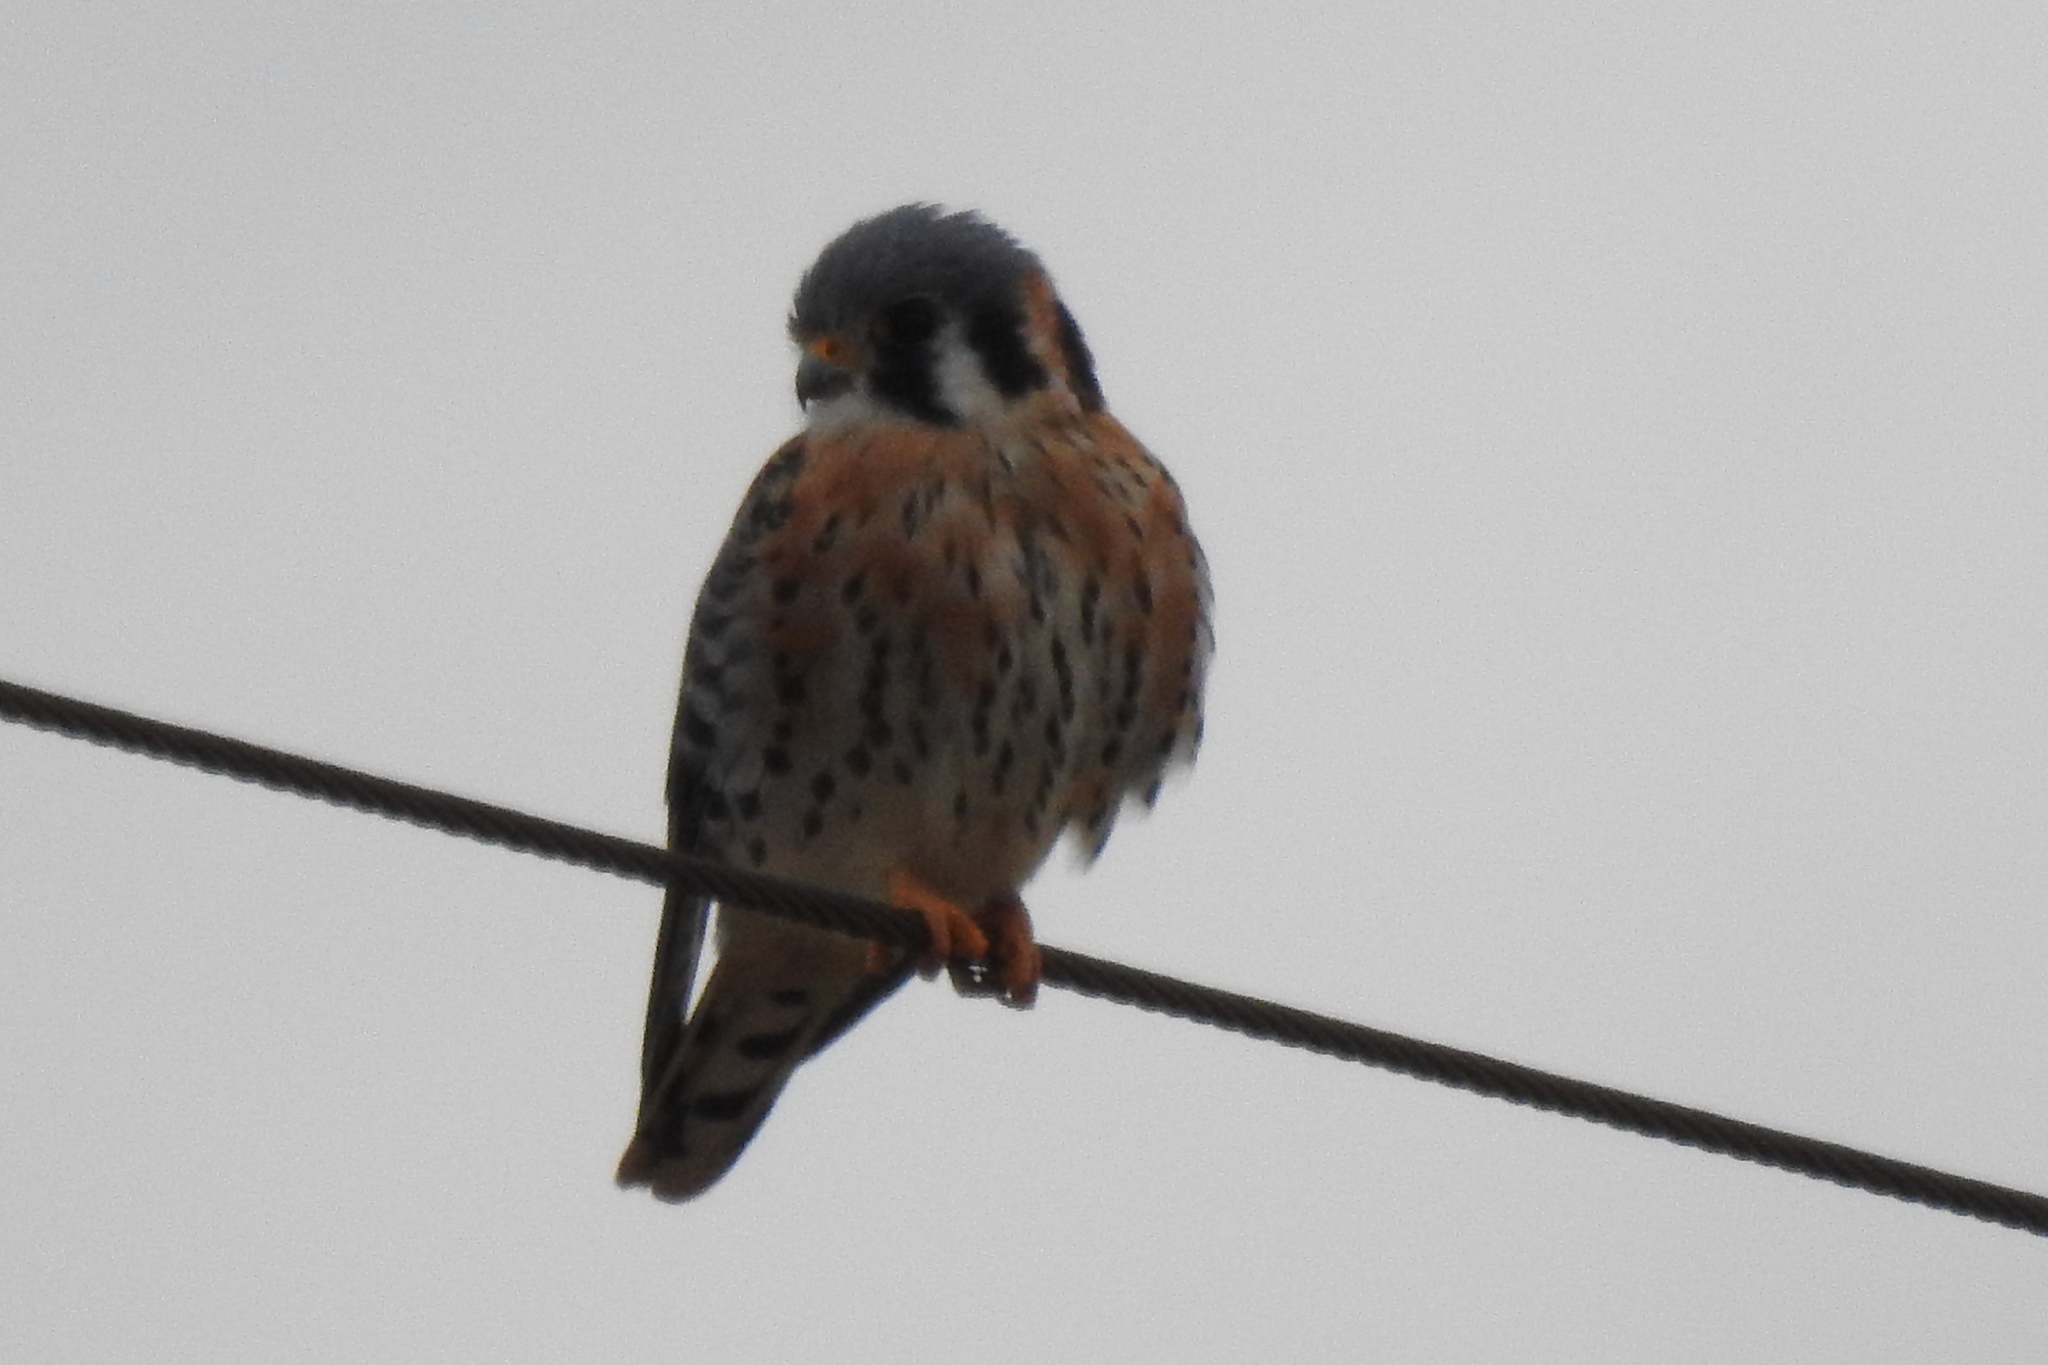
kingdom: Animalia
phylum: Chordata
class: Aves
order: Falconiformes
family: Falconidae
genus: Falco
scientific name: Falco sparverius
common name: American kestrel
